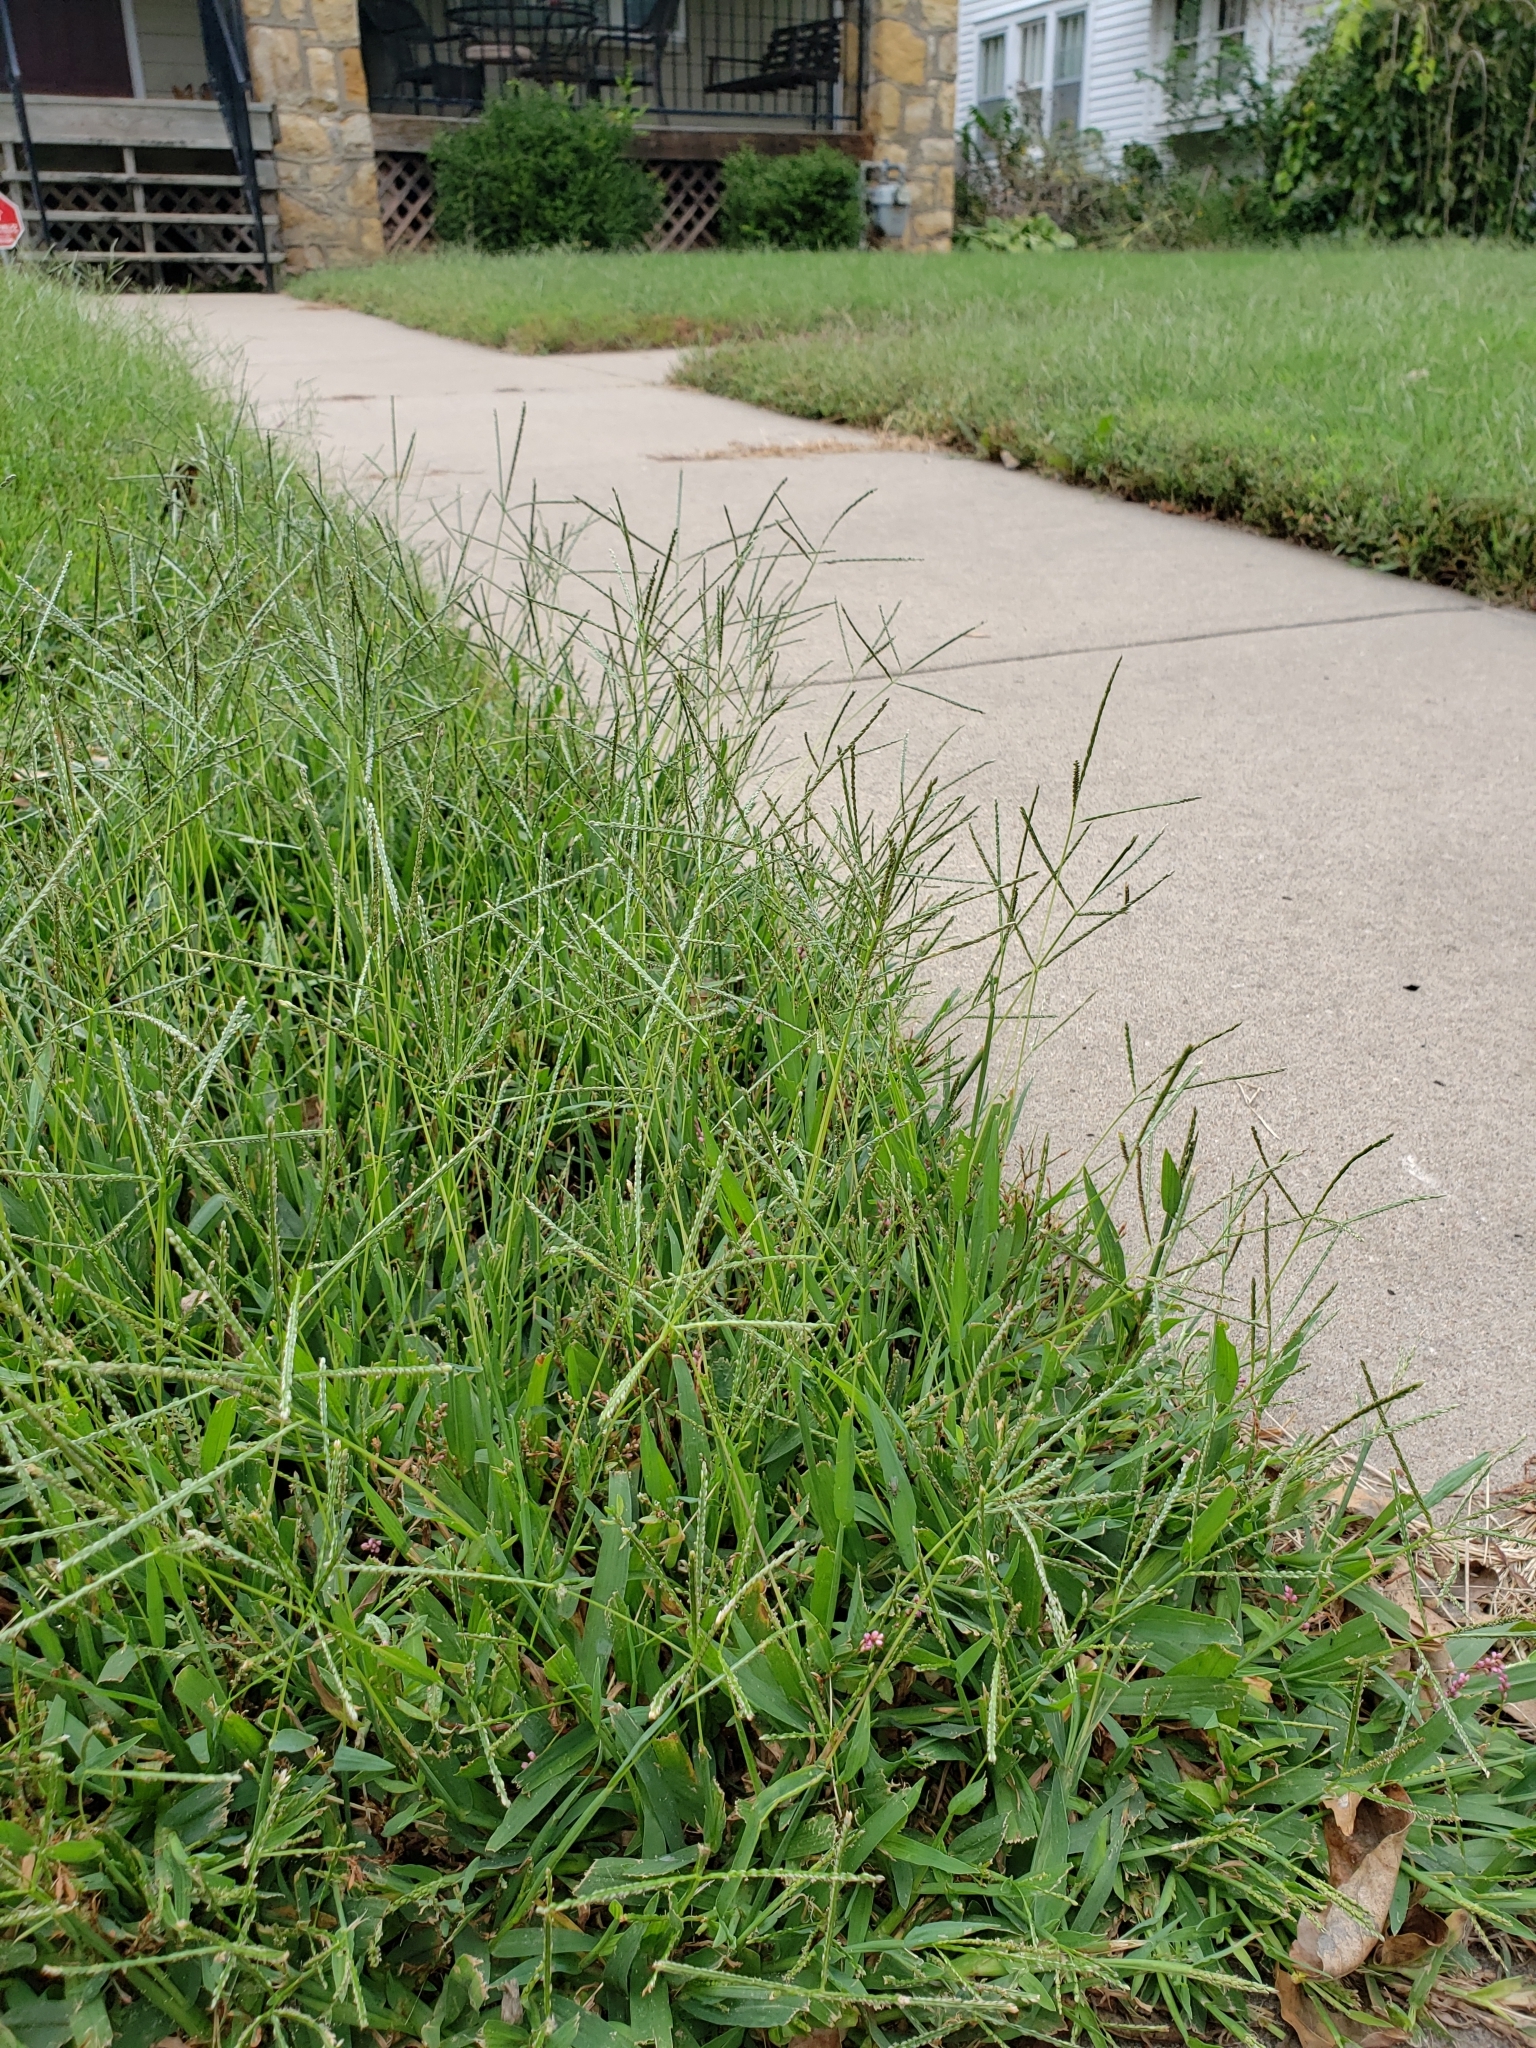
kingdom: Plantae
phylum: Tracheophyta
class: Liliopsida
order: Poales
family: Poaceae
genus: Cynodon
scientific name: Cynodon dactylon
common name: Bermuda grass
